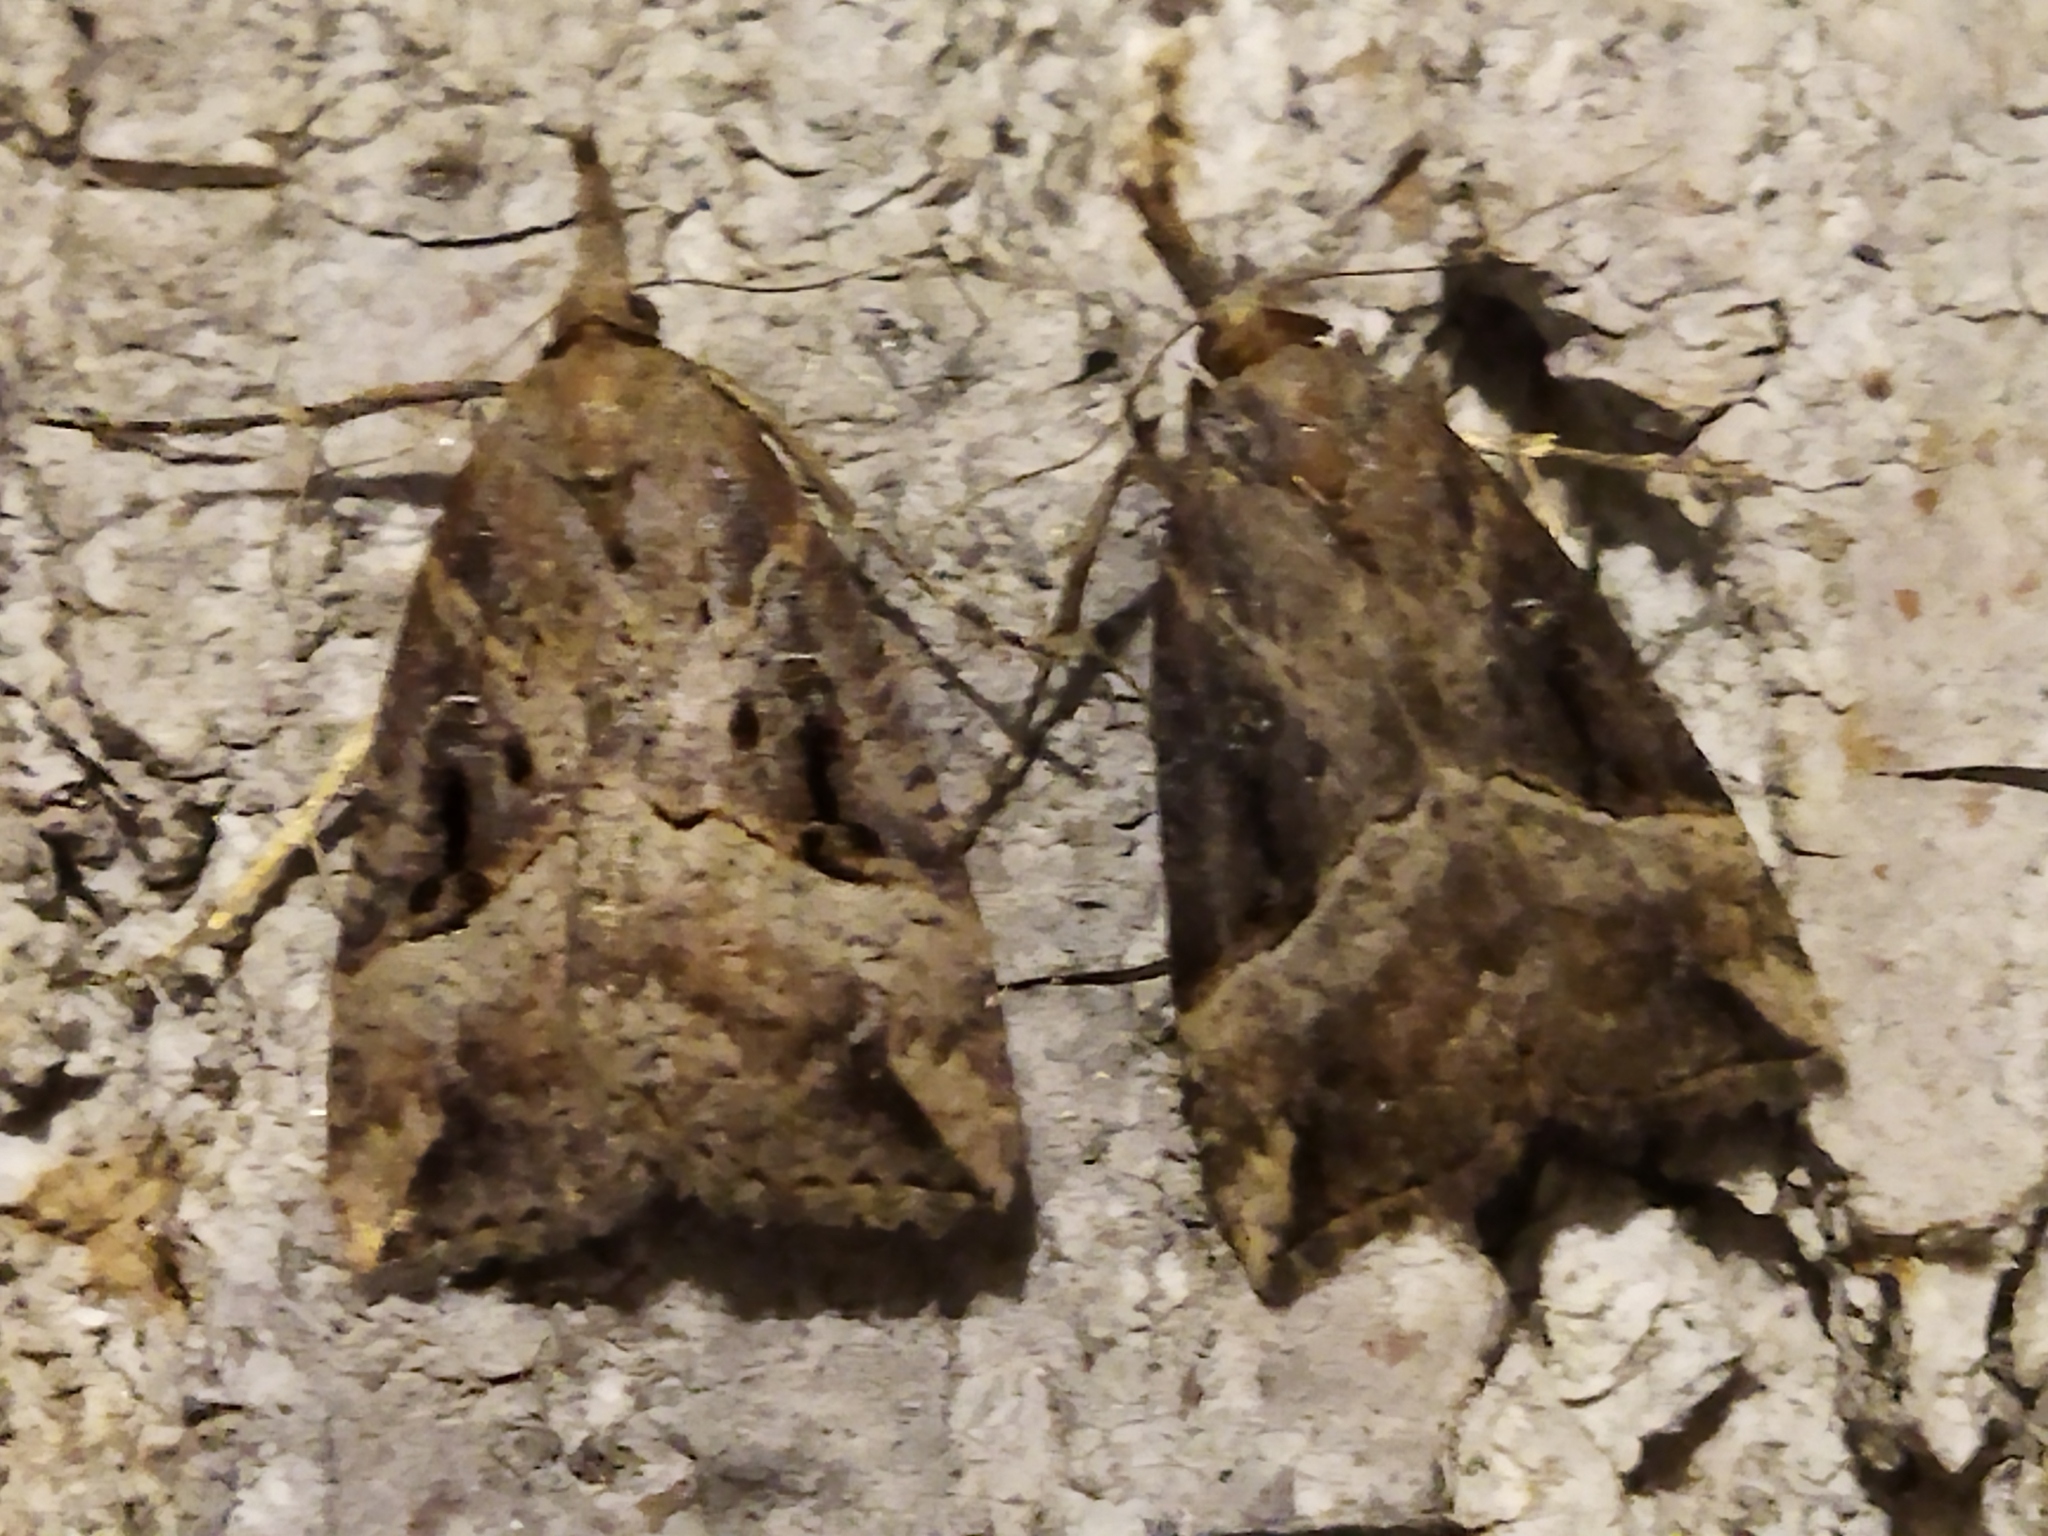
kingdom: Animalia
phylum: Arthropoda
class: Insecta
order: Lepidoptera
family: Erebidae
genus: Hypena
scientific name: Hypena rostralis
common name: Buttoned snout
